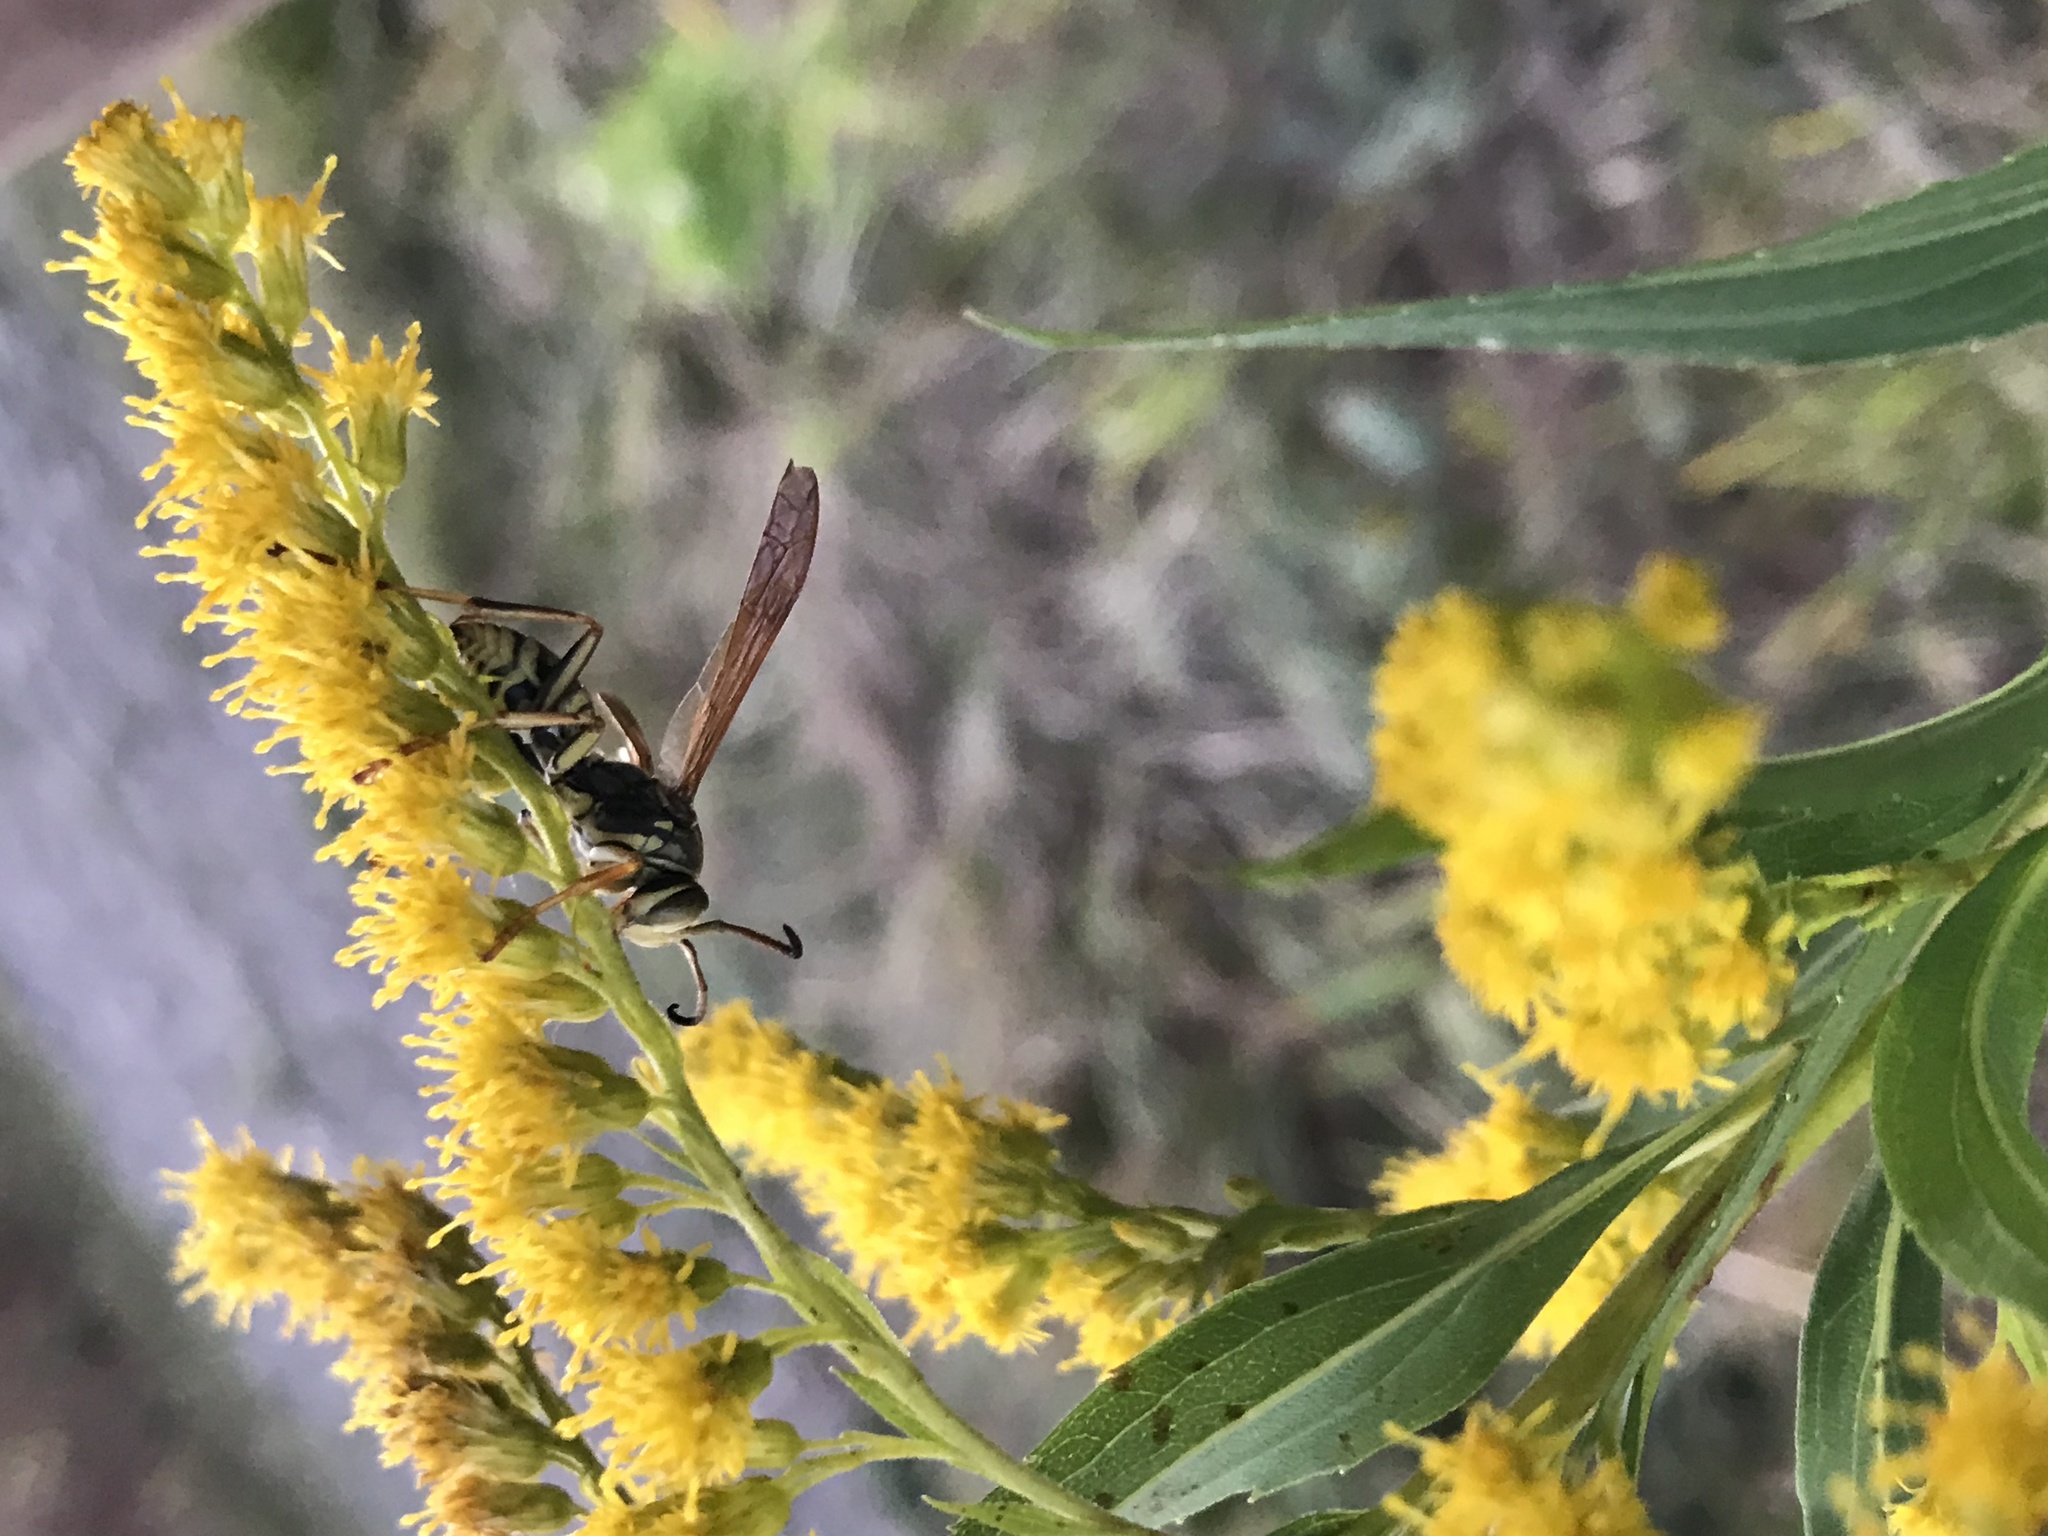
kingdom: Animalia
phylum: Arthropoda
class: Insecta
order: Hymenoptera
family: Eumenidae
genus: Polistes
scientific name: Polistes fuscatus
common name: Dark paper wasp
